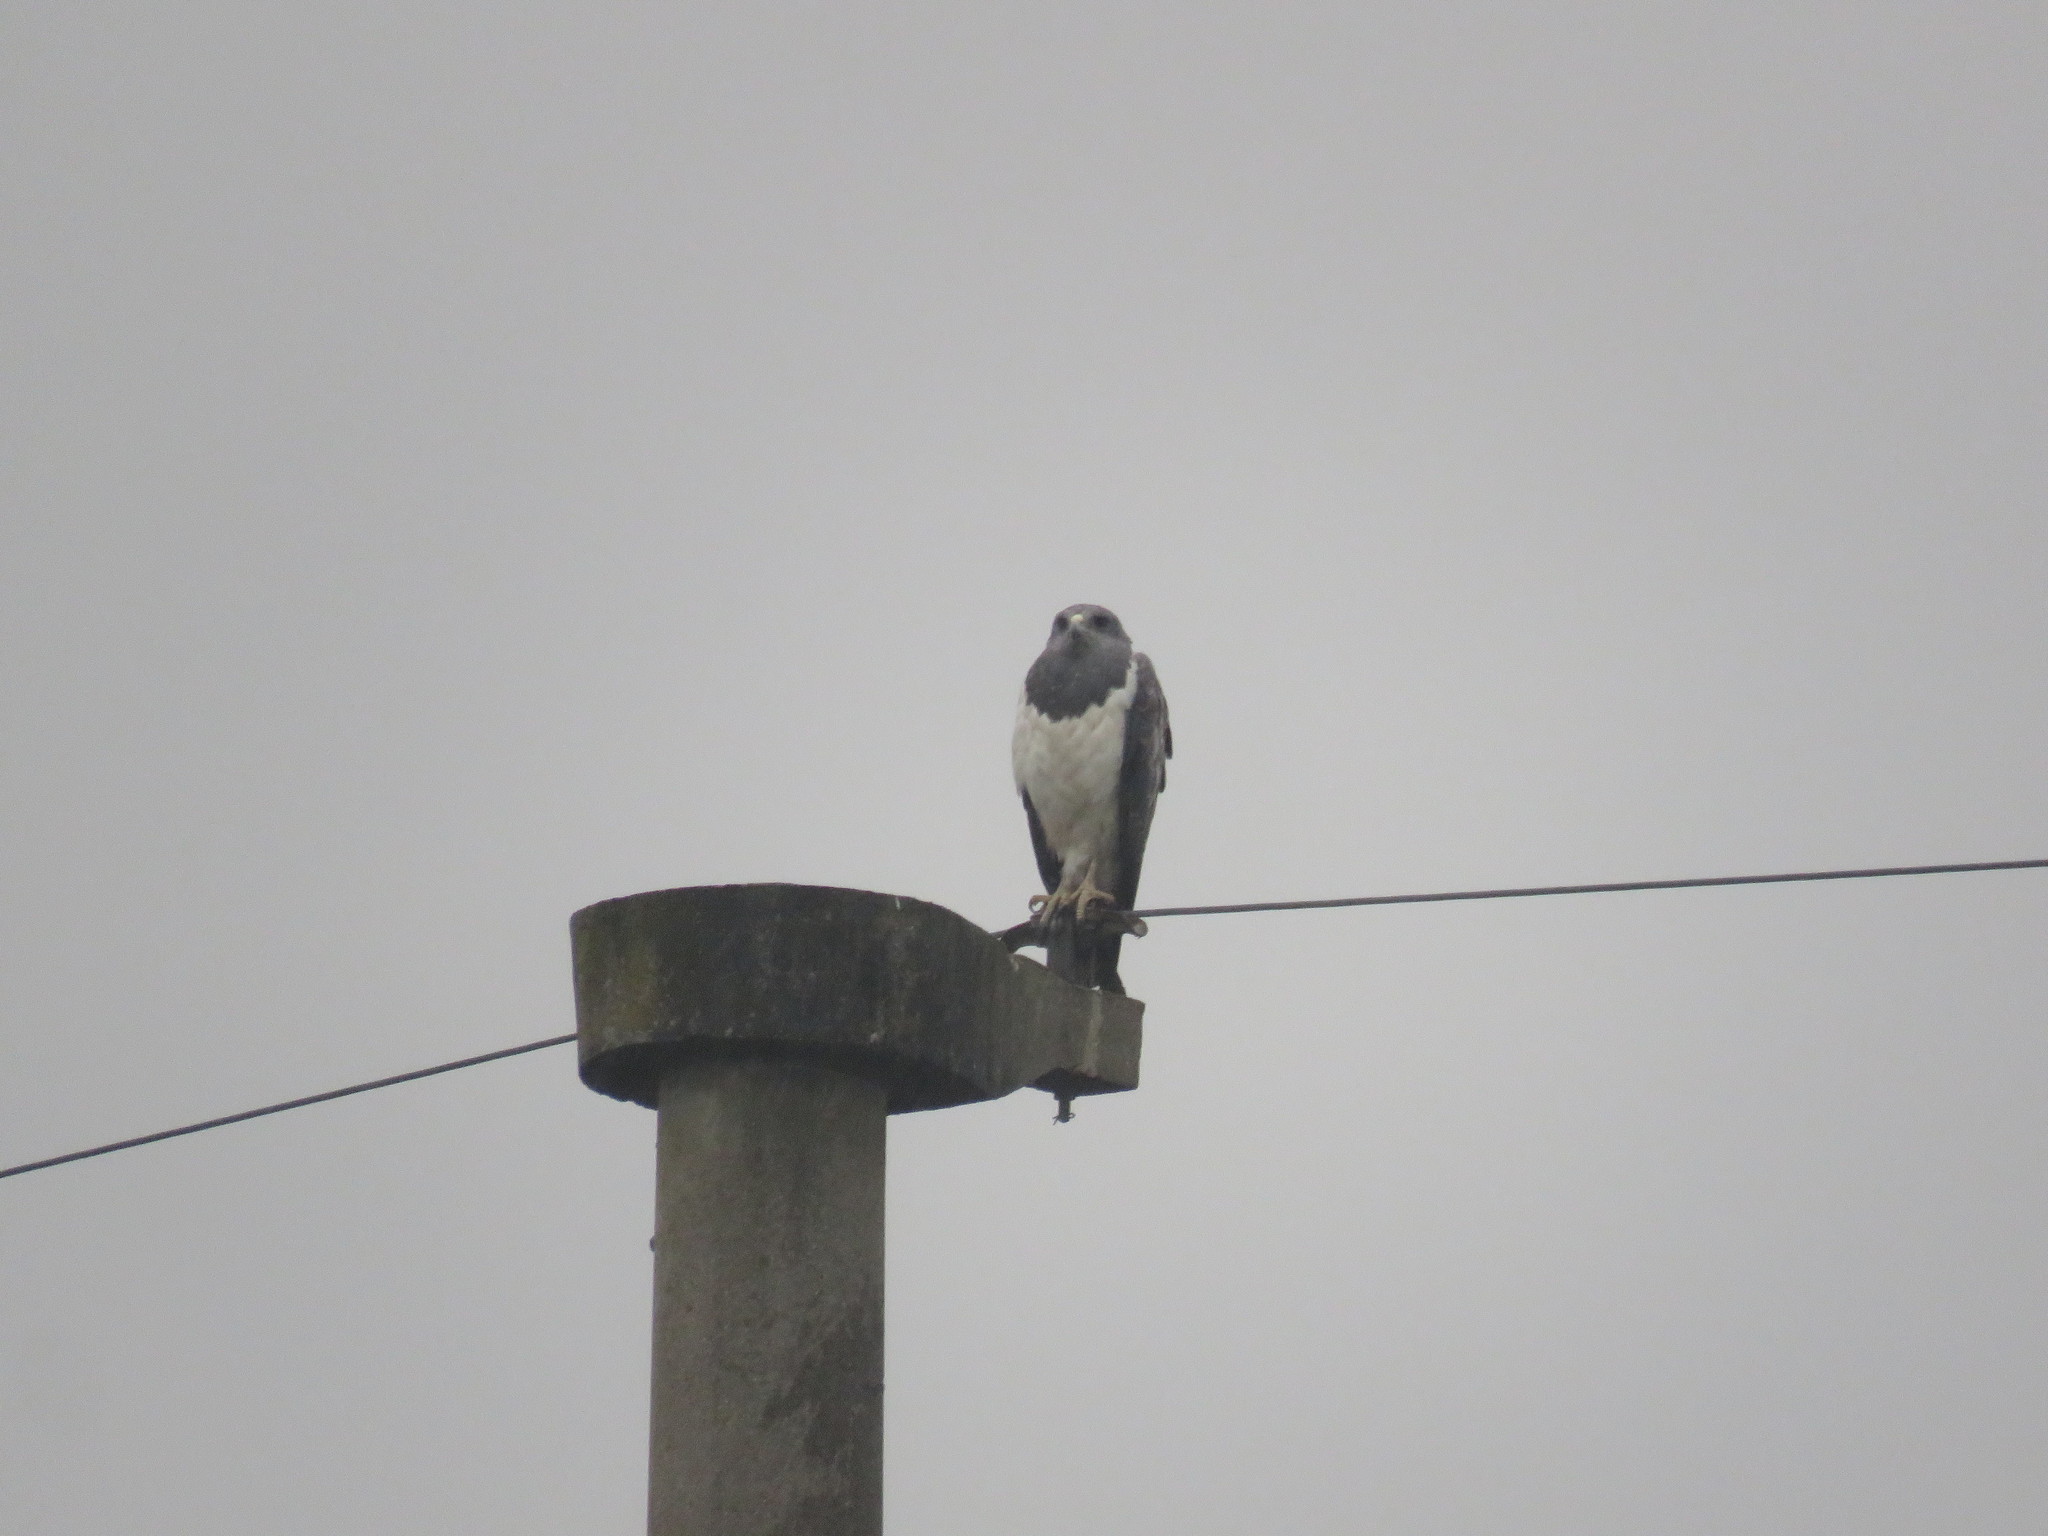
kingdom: Animalia
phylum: Chordata
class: Aves
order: Accipitriformes
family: Accipitridae
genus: Geranoaetus
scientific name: Geranoaetus melanoleucus
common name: Black-chested buzzard-eagle
